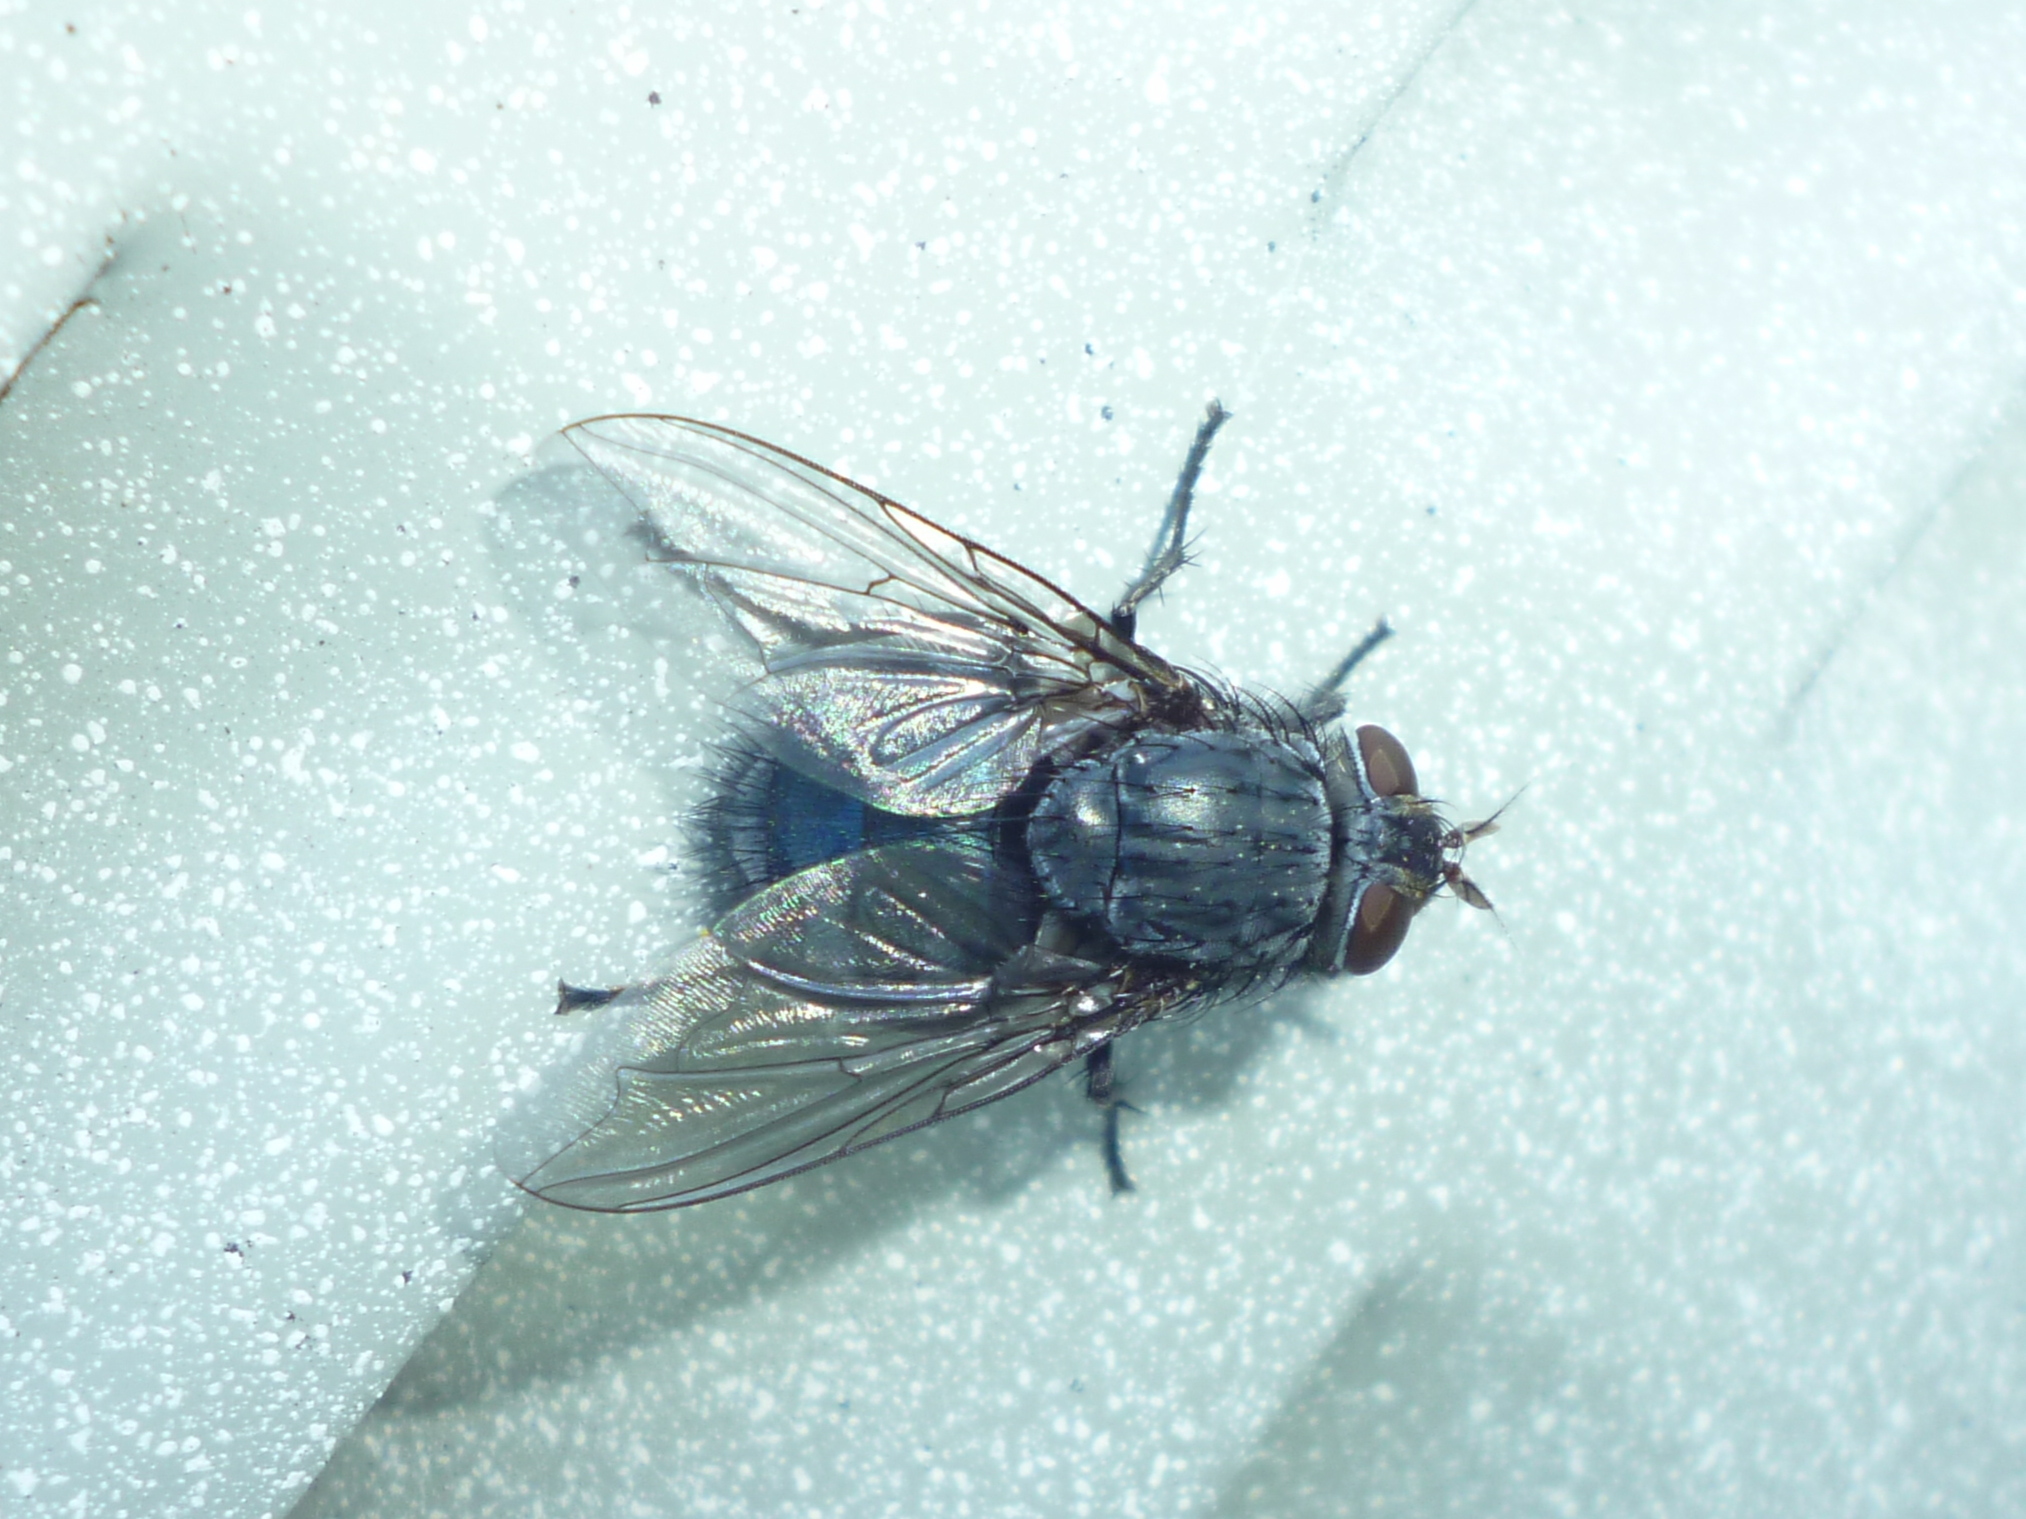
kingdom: Animalia
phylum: Arthropoda
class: Insecta
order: Diptera
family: Calliphoridae
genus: Calliphora
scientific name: Calliphora vicina
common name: Common blow flie
